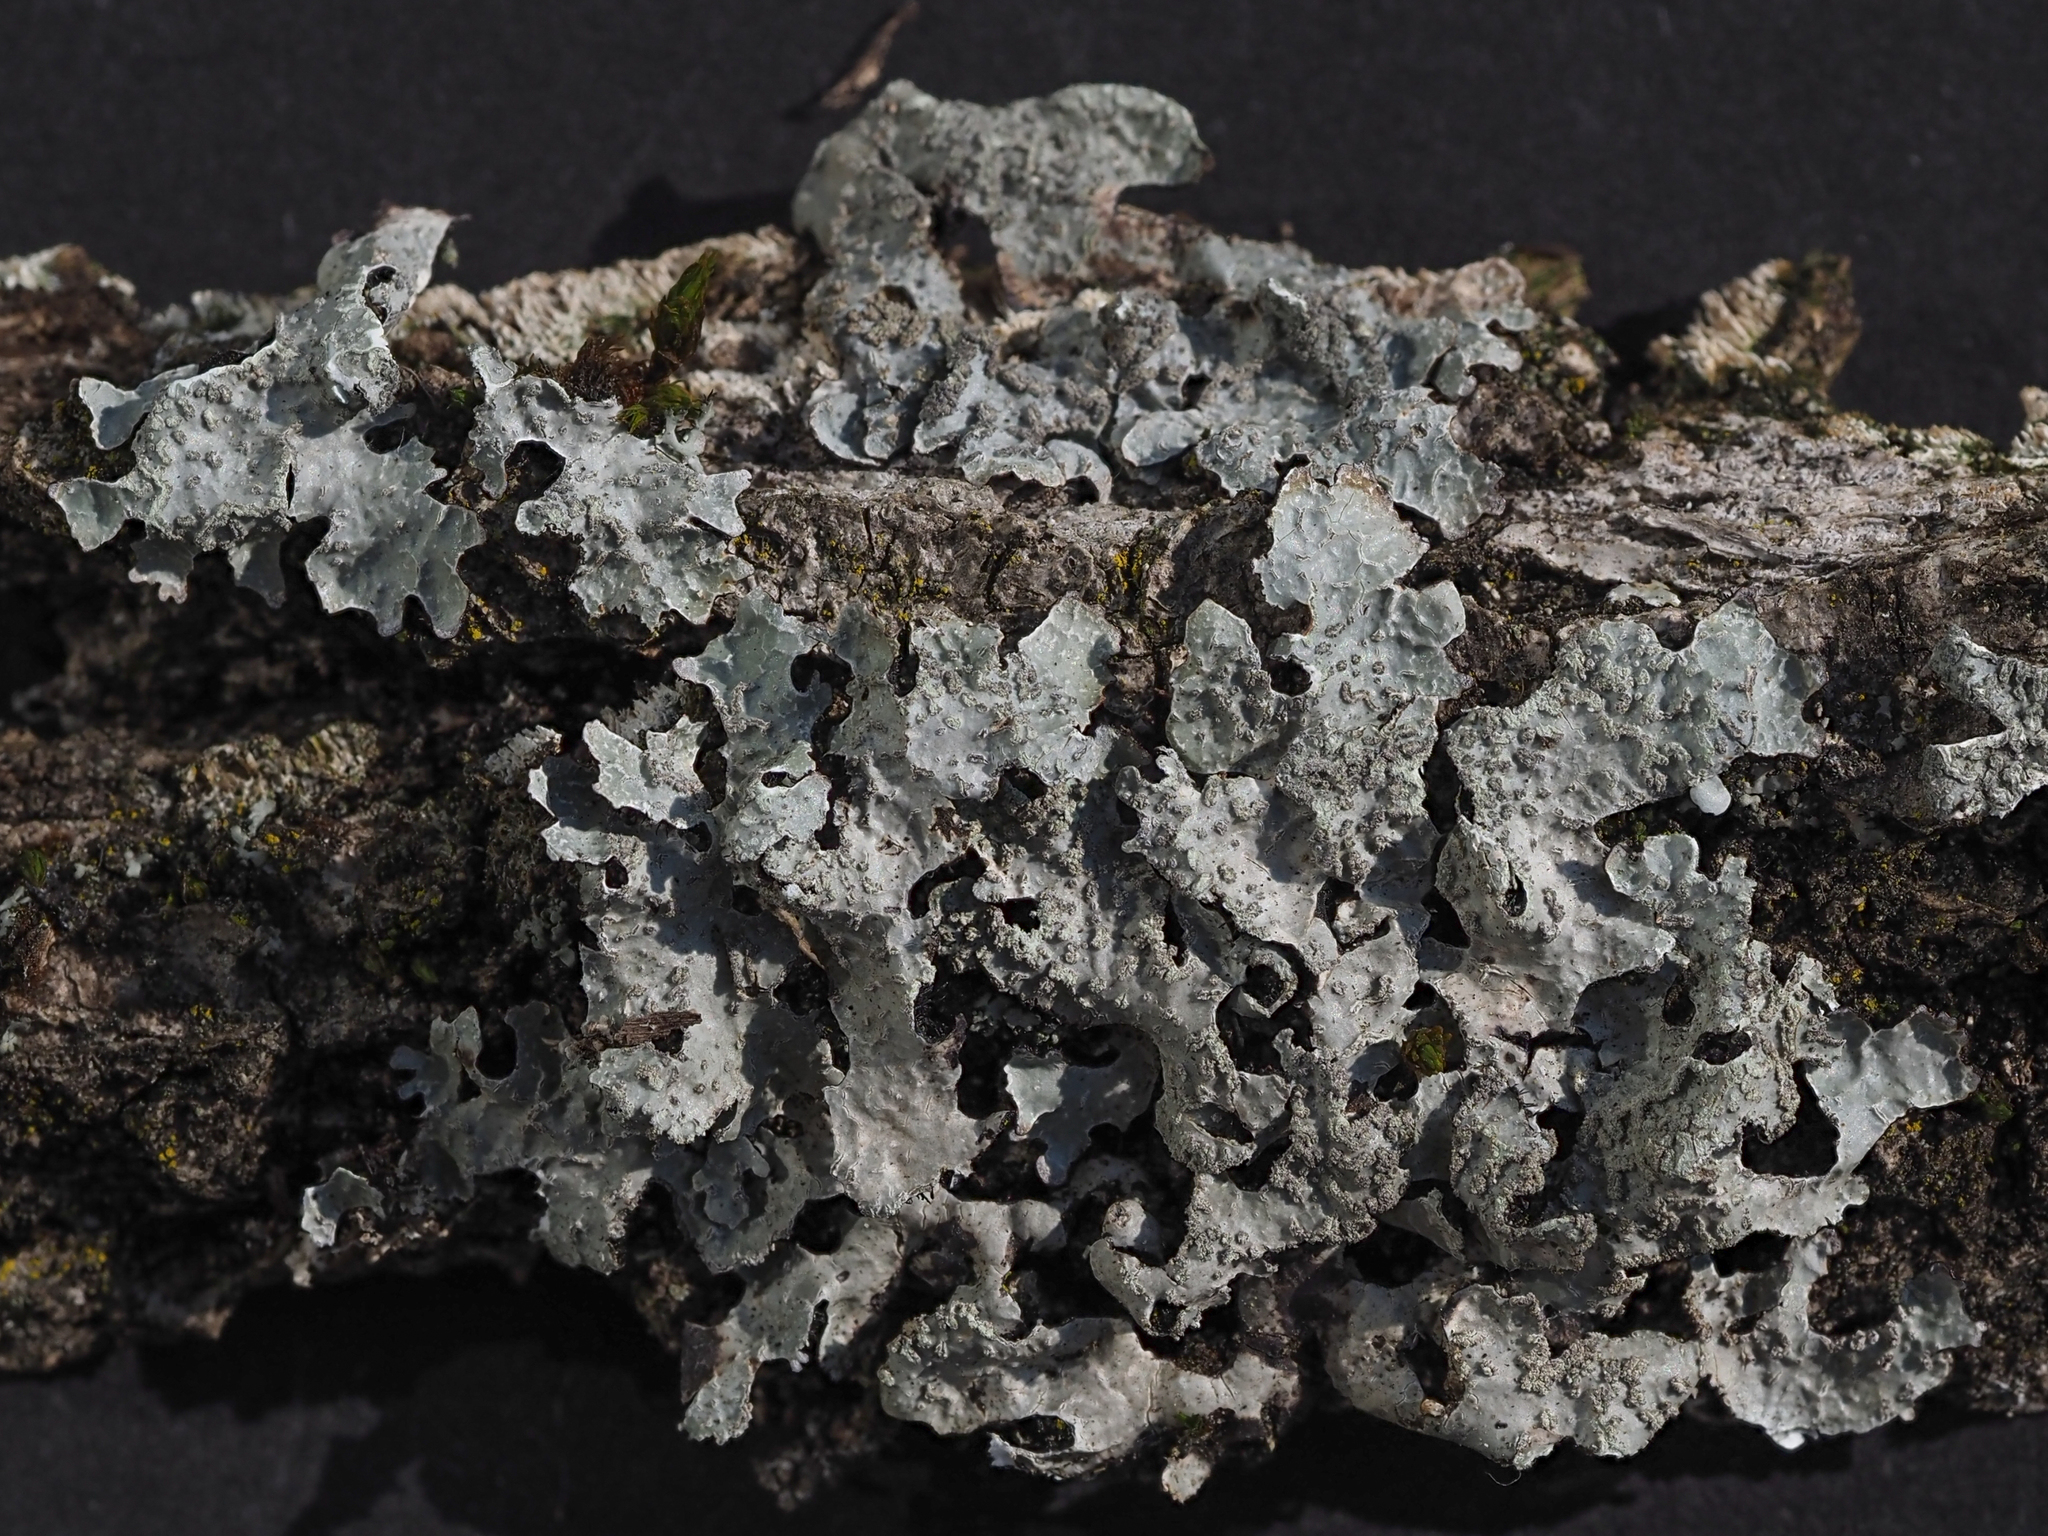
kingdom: Fungi
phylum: Ascomycota
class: Lecanoromycetes
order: Lecanorales
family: Parmeliaceae
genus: Parmelia
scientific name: Parmelia sulcata
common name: Netted shield lichen
